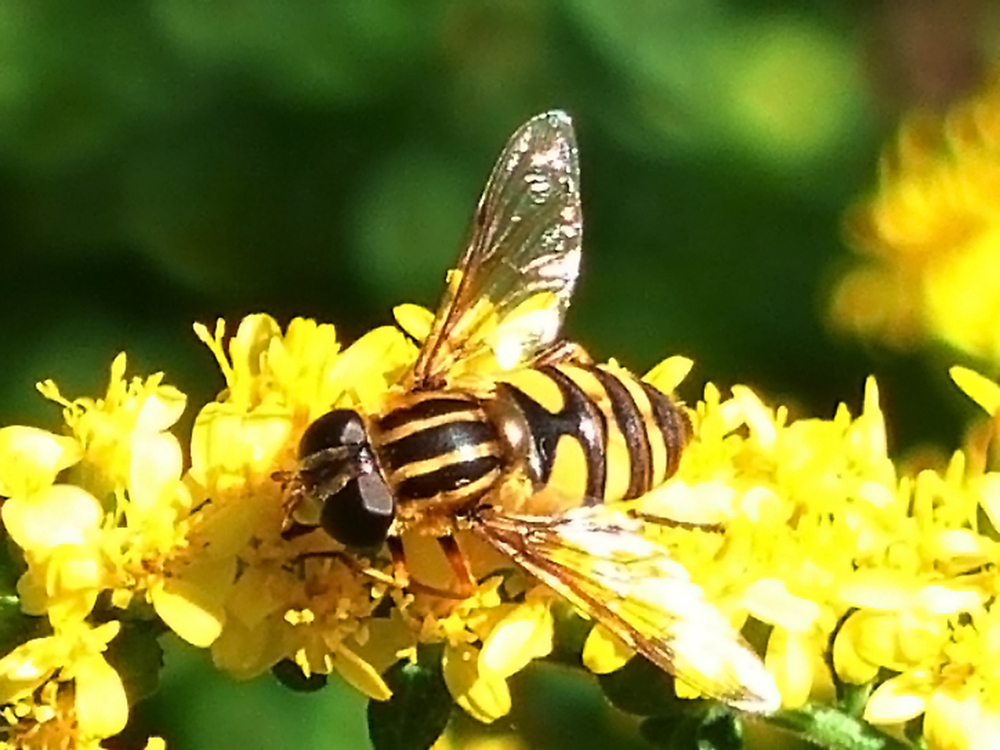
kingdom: Animalia
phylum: Arthropoda
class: Insecta
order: Diptera
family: Syrphidae
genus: Helophilus
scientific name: Helophilus fasciatus
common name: Narrow-headed marsh fly
